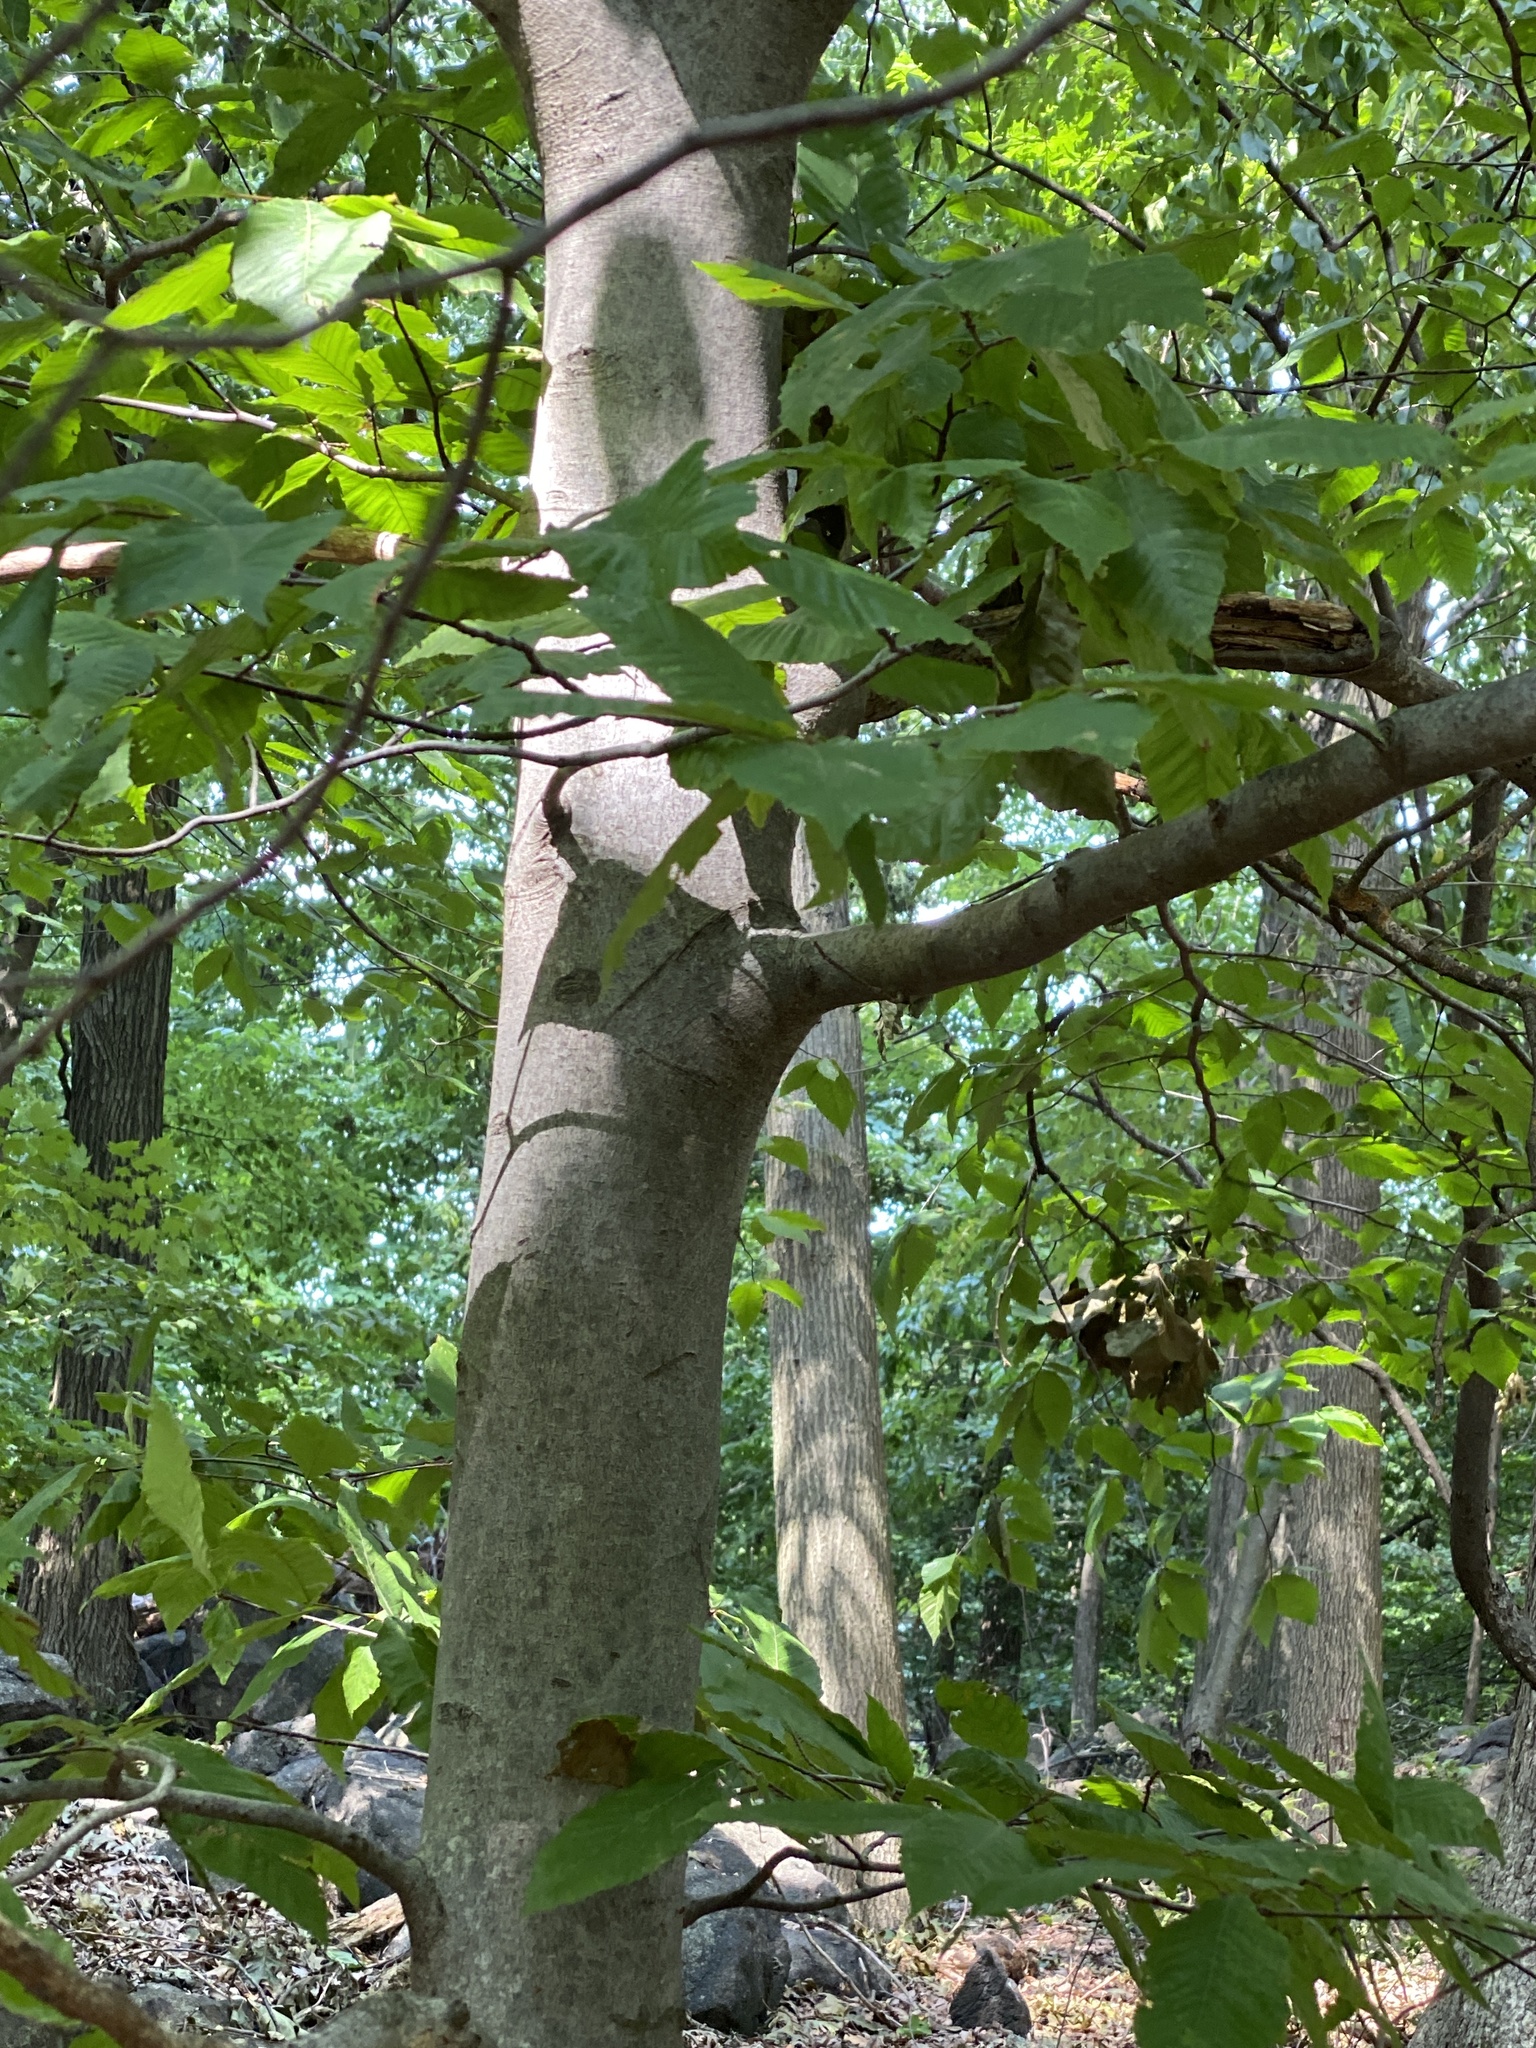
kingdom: Plantae
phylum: Tracheophyta
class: Magnoliopsida
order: Fagales
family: Fagaceae
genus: Fagus
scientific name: Fagus grandifolia
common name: American beech
